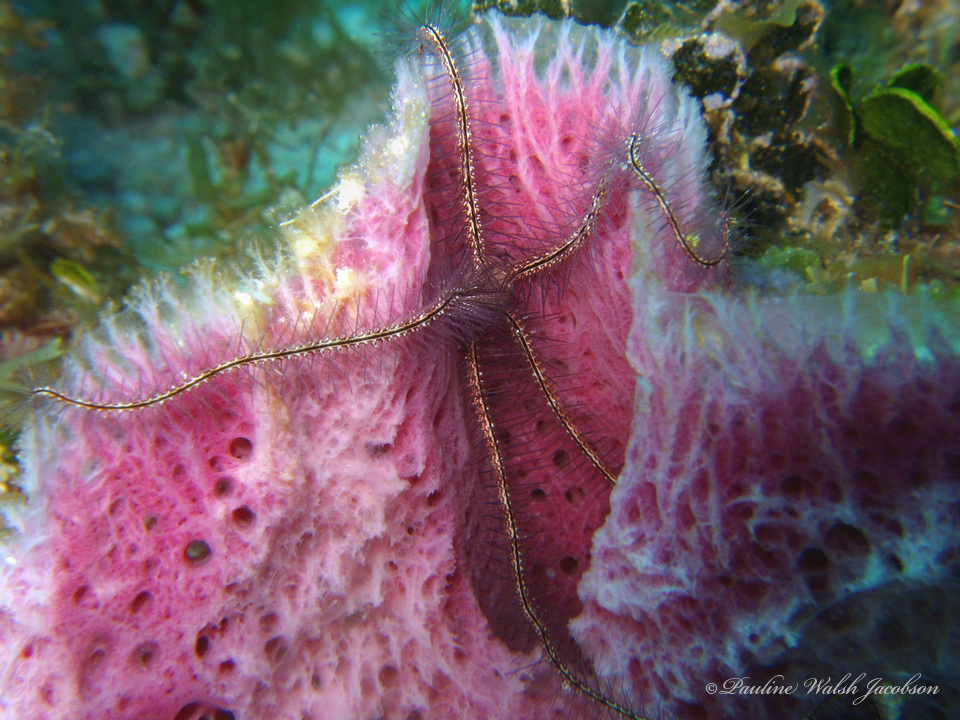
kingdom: Animalia
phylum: Echinodermata
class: Ophiuroidea
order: Amphilepidida
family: Ophiotrichidae
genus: Ophiothrix
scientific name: Ophiothrix suensonii
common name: Sponge brittle star
